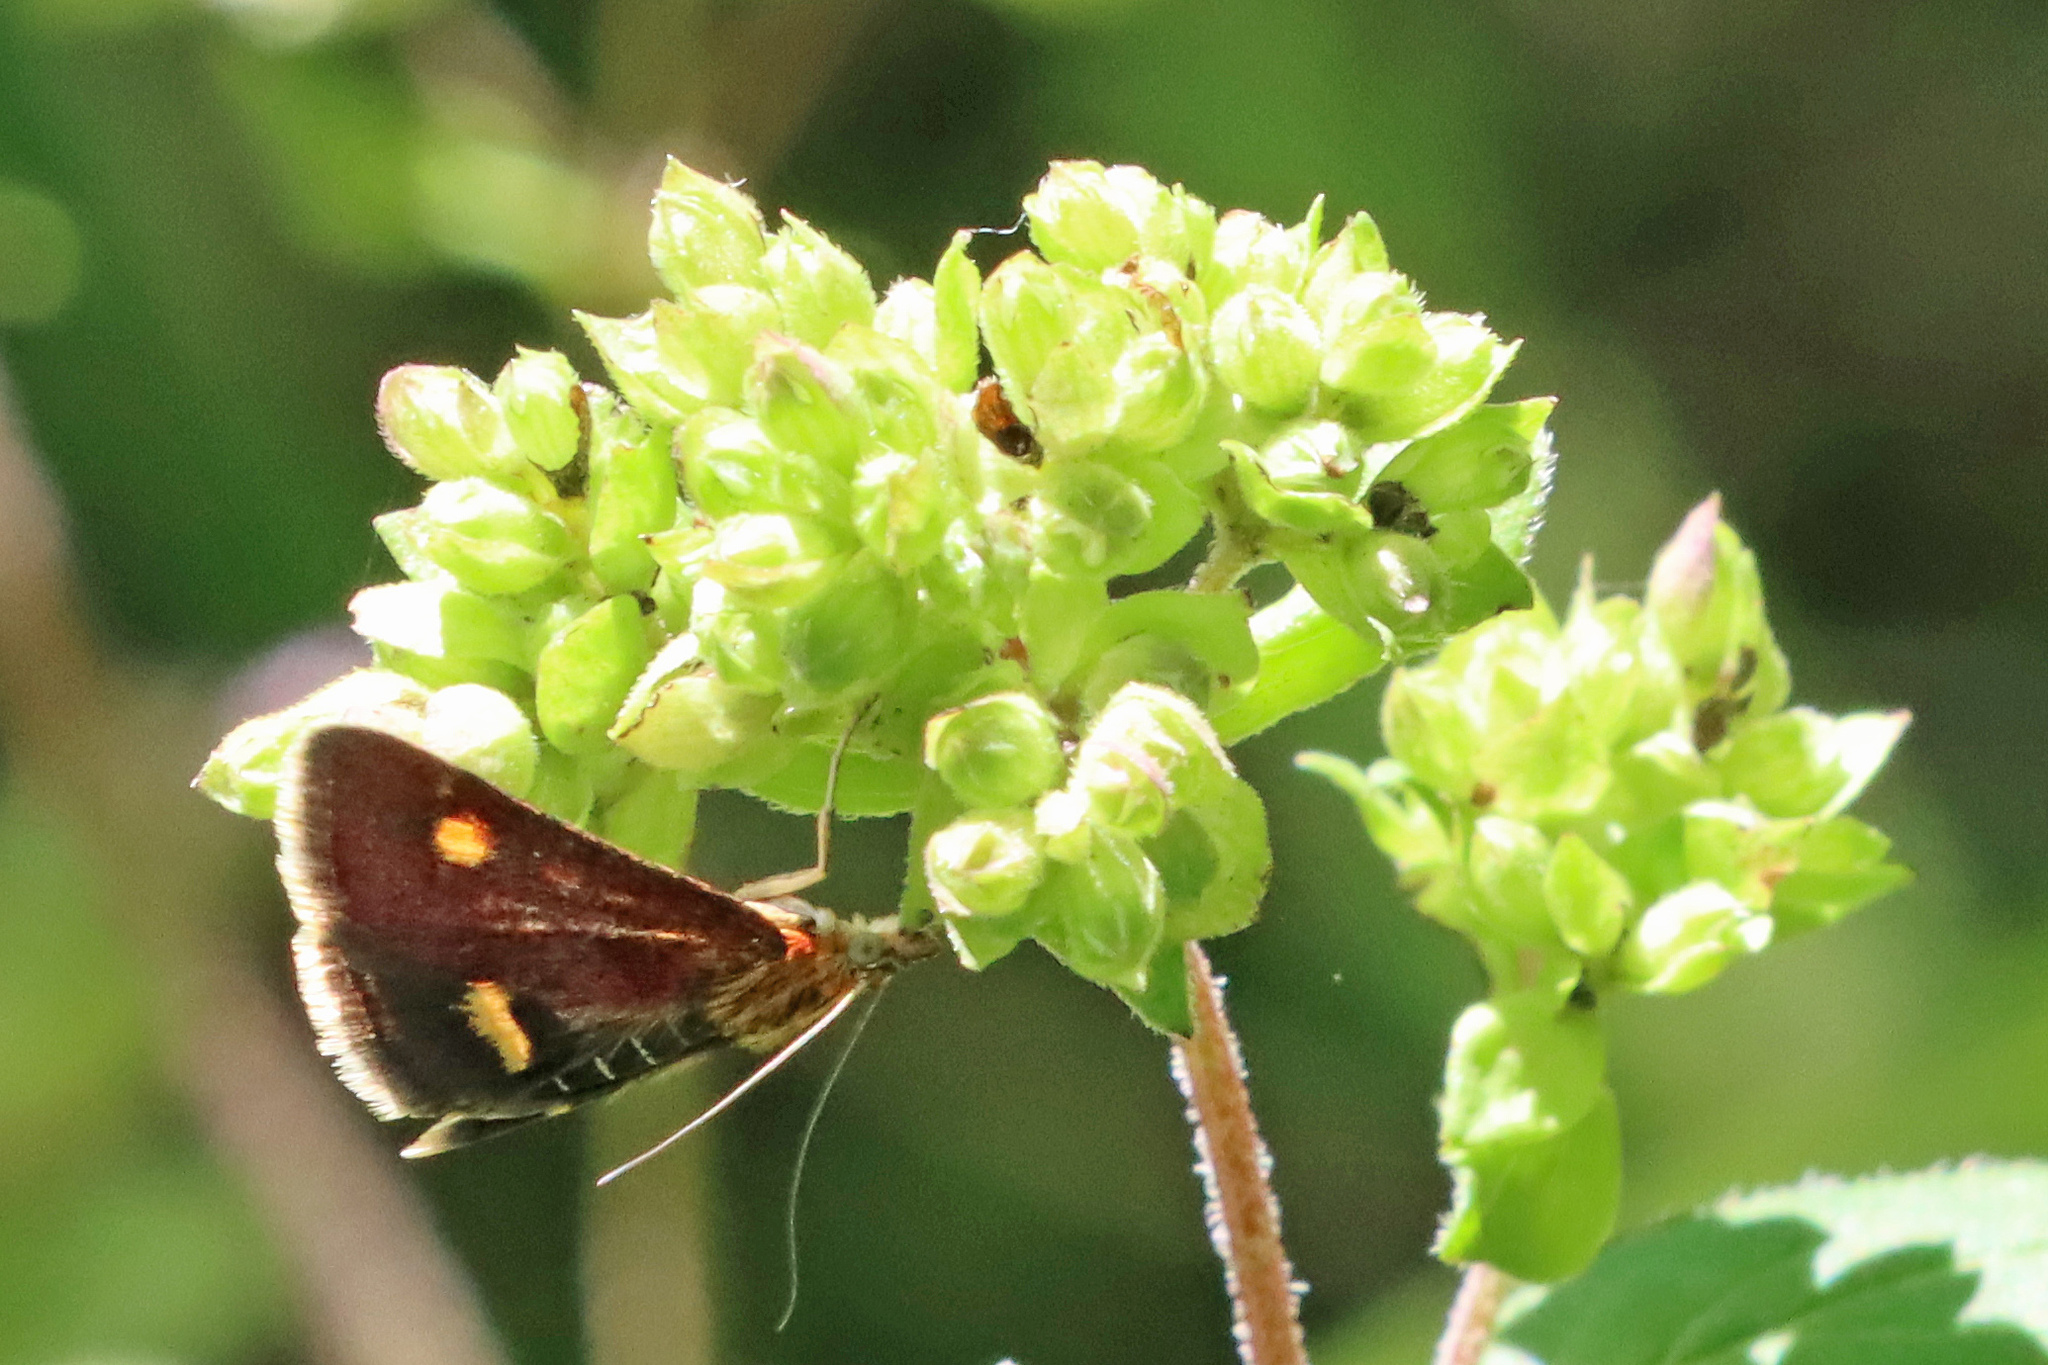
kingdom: Animalia
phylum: Arthropoda
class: Insecta
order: Lepidoptera
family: Crambidae
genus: Pyrausta
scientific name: Pyrausta aurata
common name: Small purple & gold
